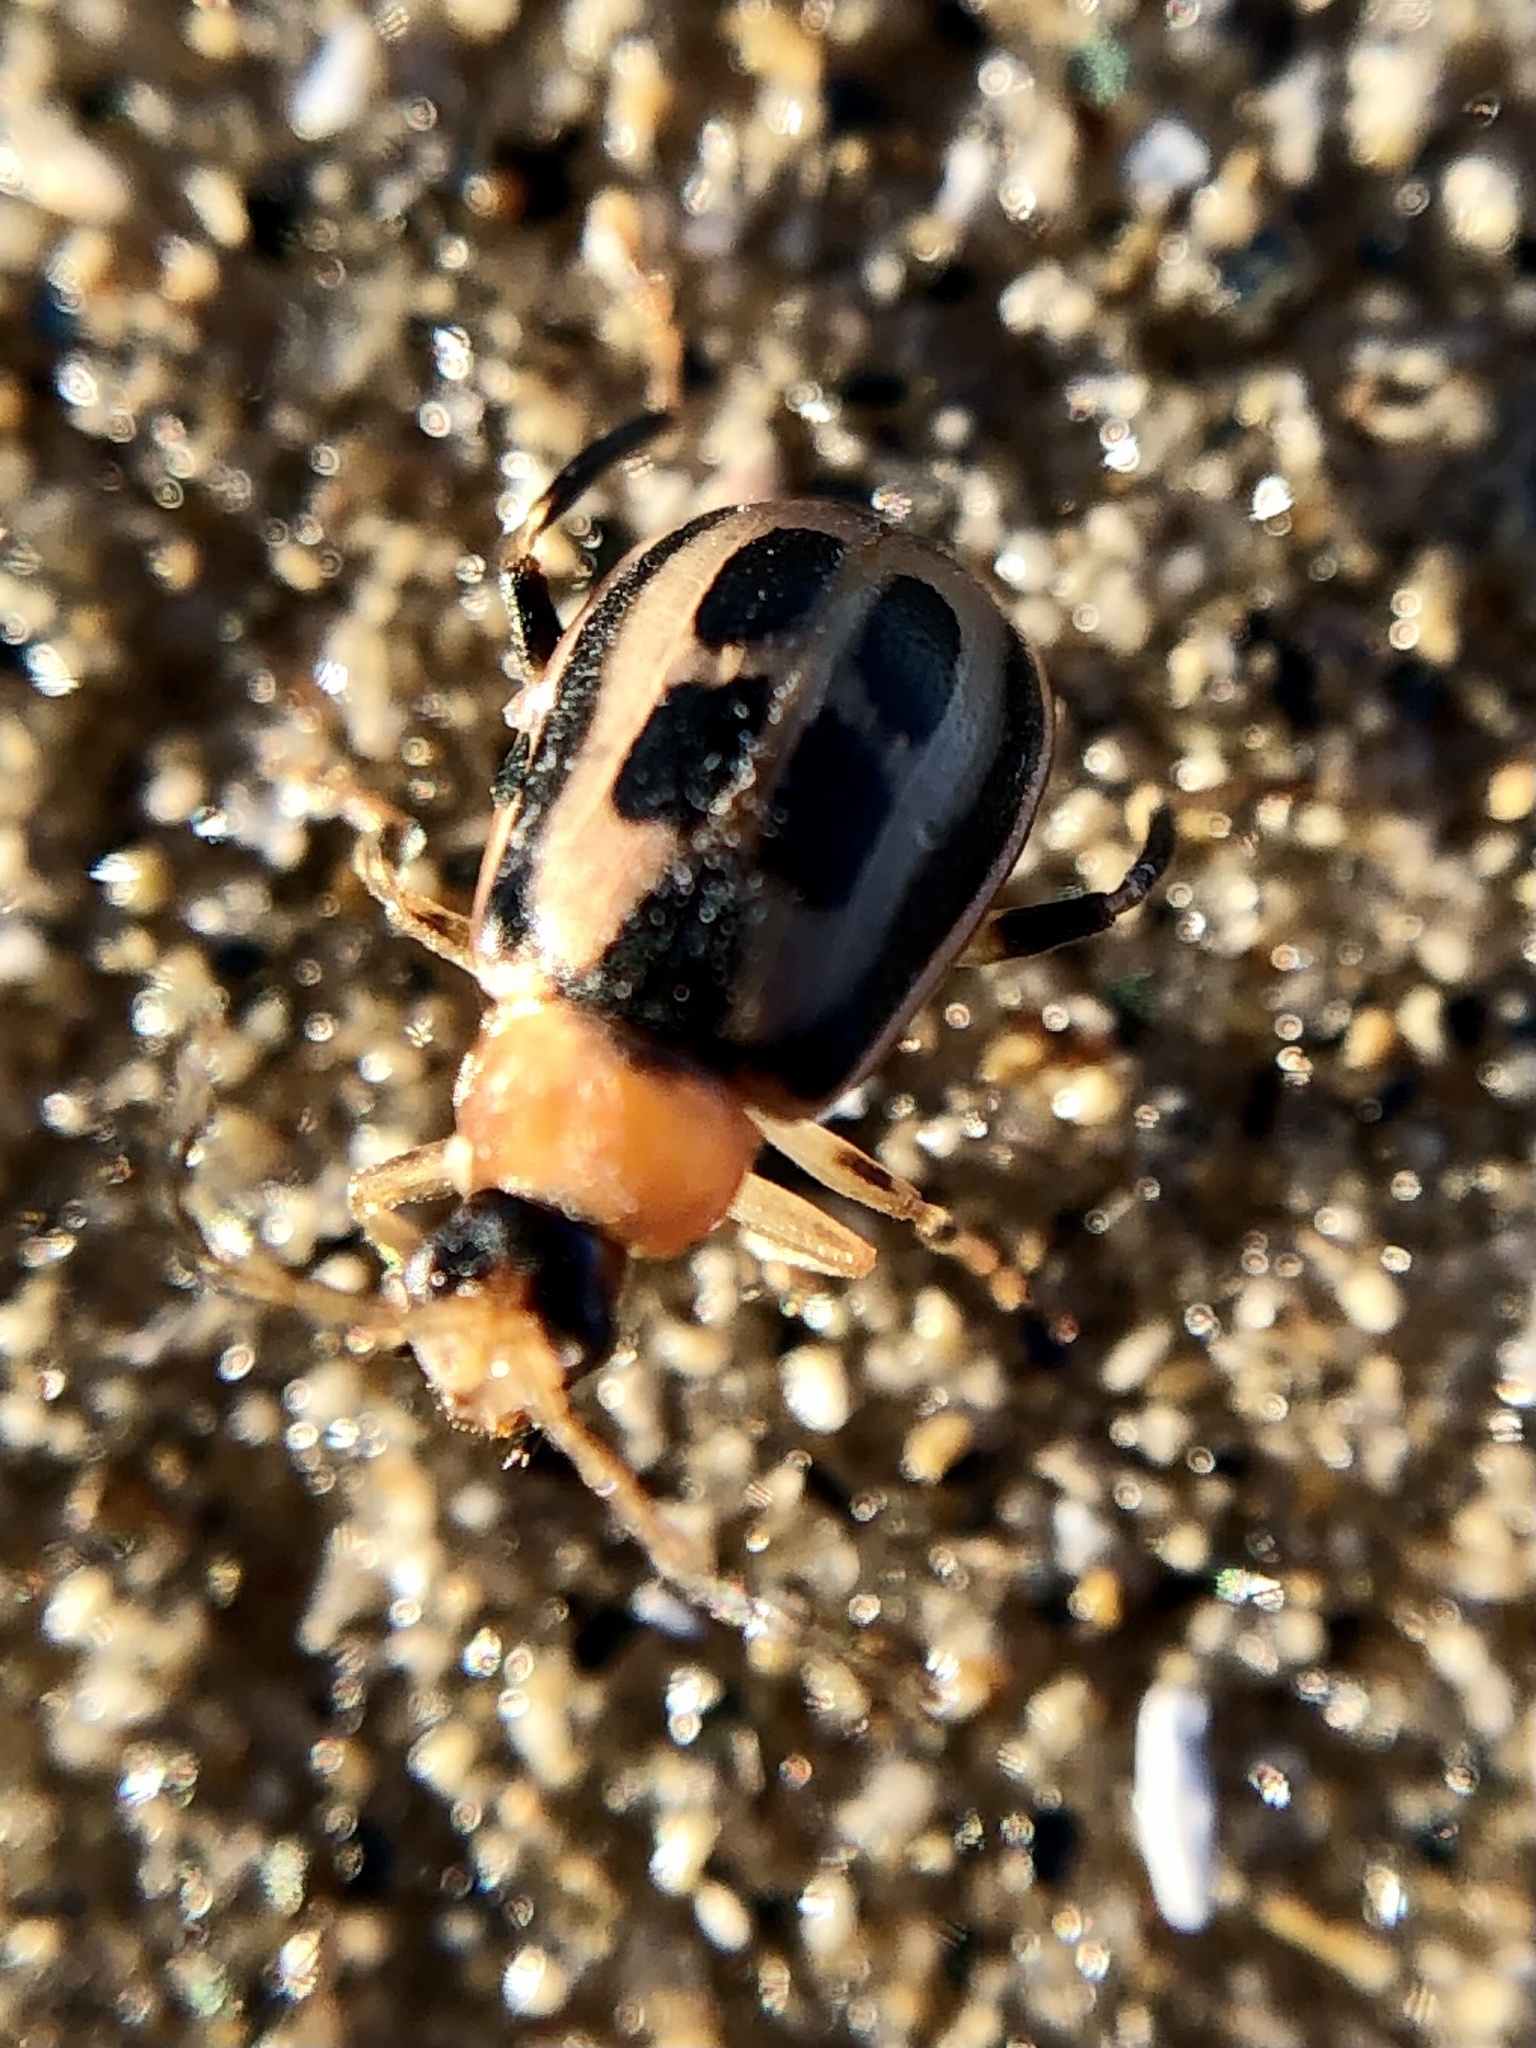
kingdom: Animalia
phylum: Arthropoda
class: Insecta
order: Coleoptera
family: Chrysomelidae
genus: Cerotoma
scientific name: Cerotoma trifurcata
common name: Bean leaf beetle
